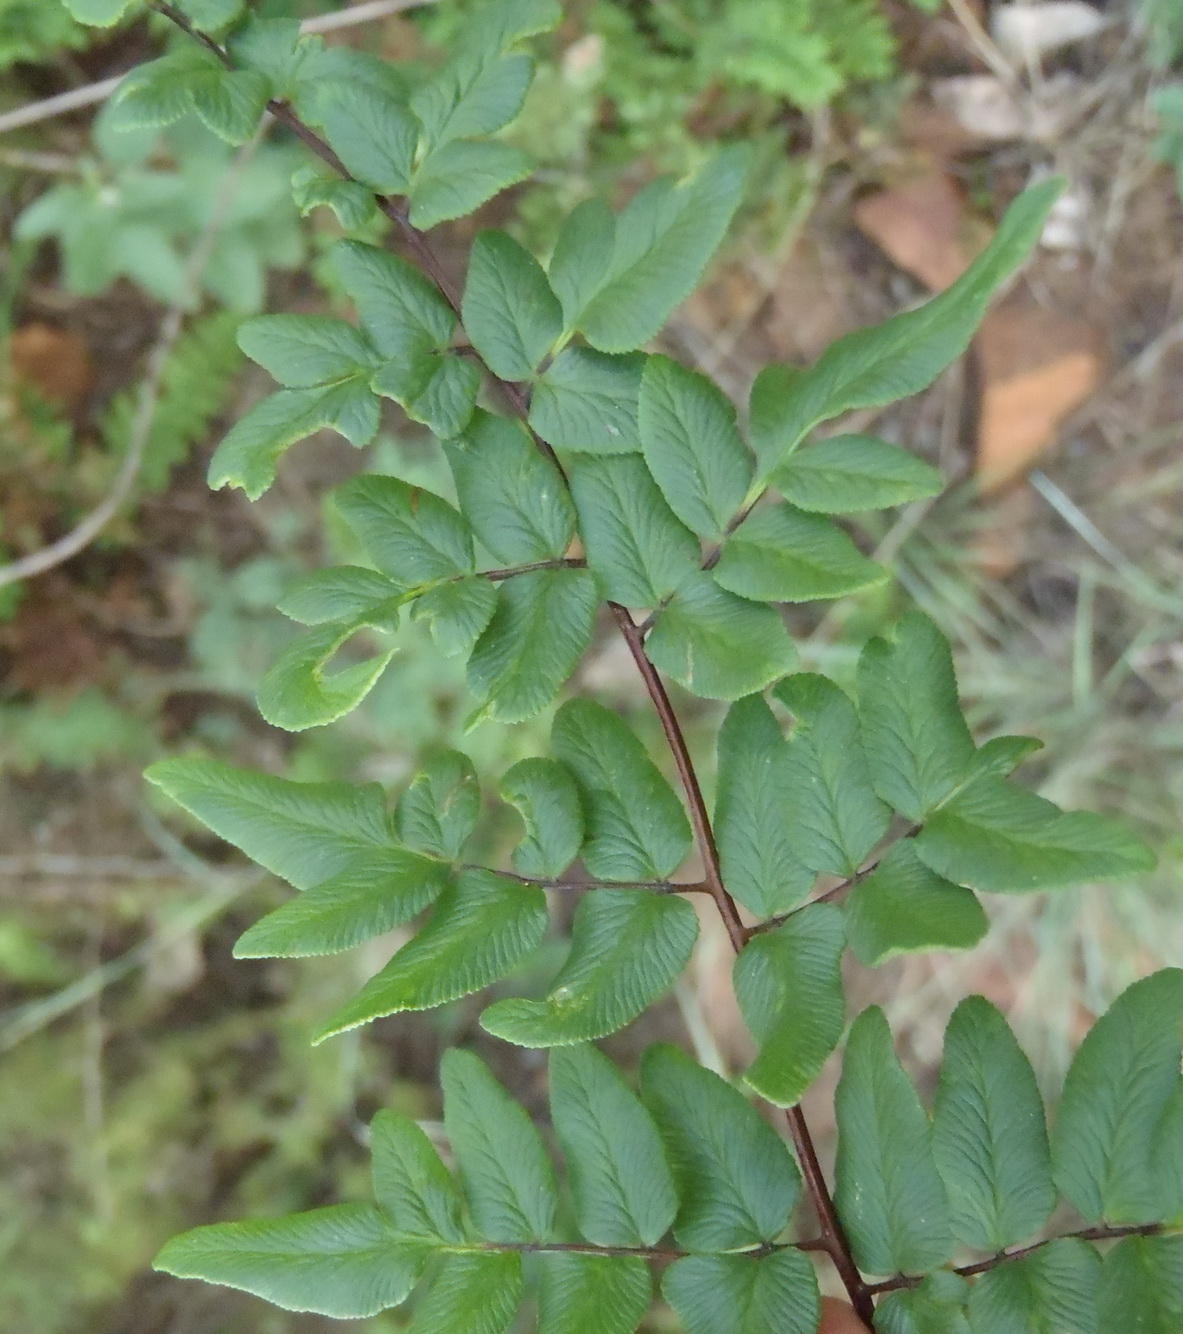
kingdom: Plantae
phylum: Tracheophyta
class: Polypodiopsida
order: Polypodiales
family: Pteridaceae
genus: Cheilanthes
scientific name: Cheilanthes viridis
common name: Green cliffbrake
